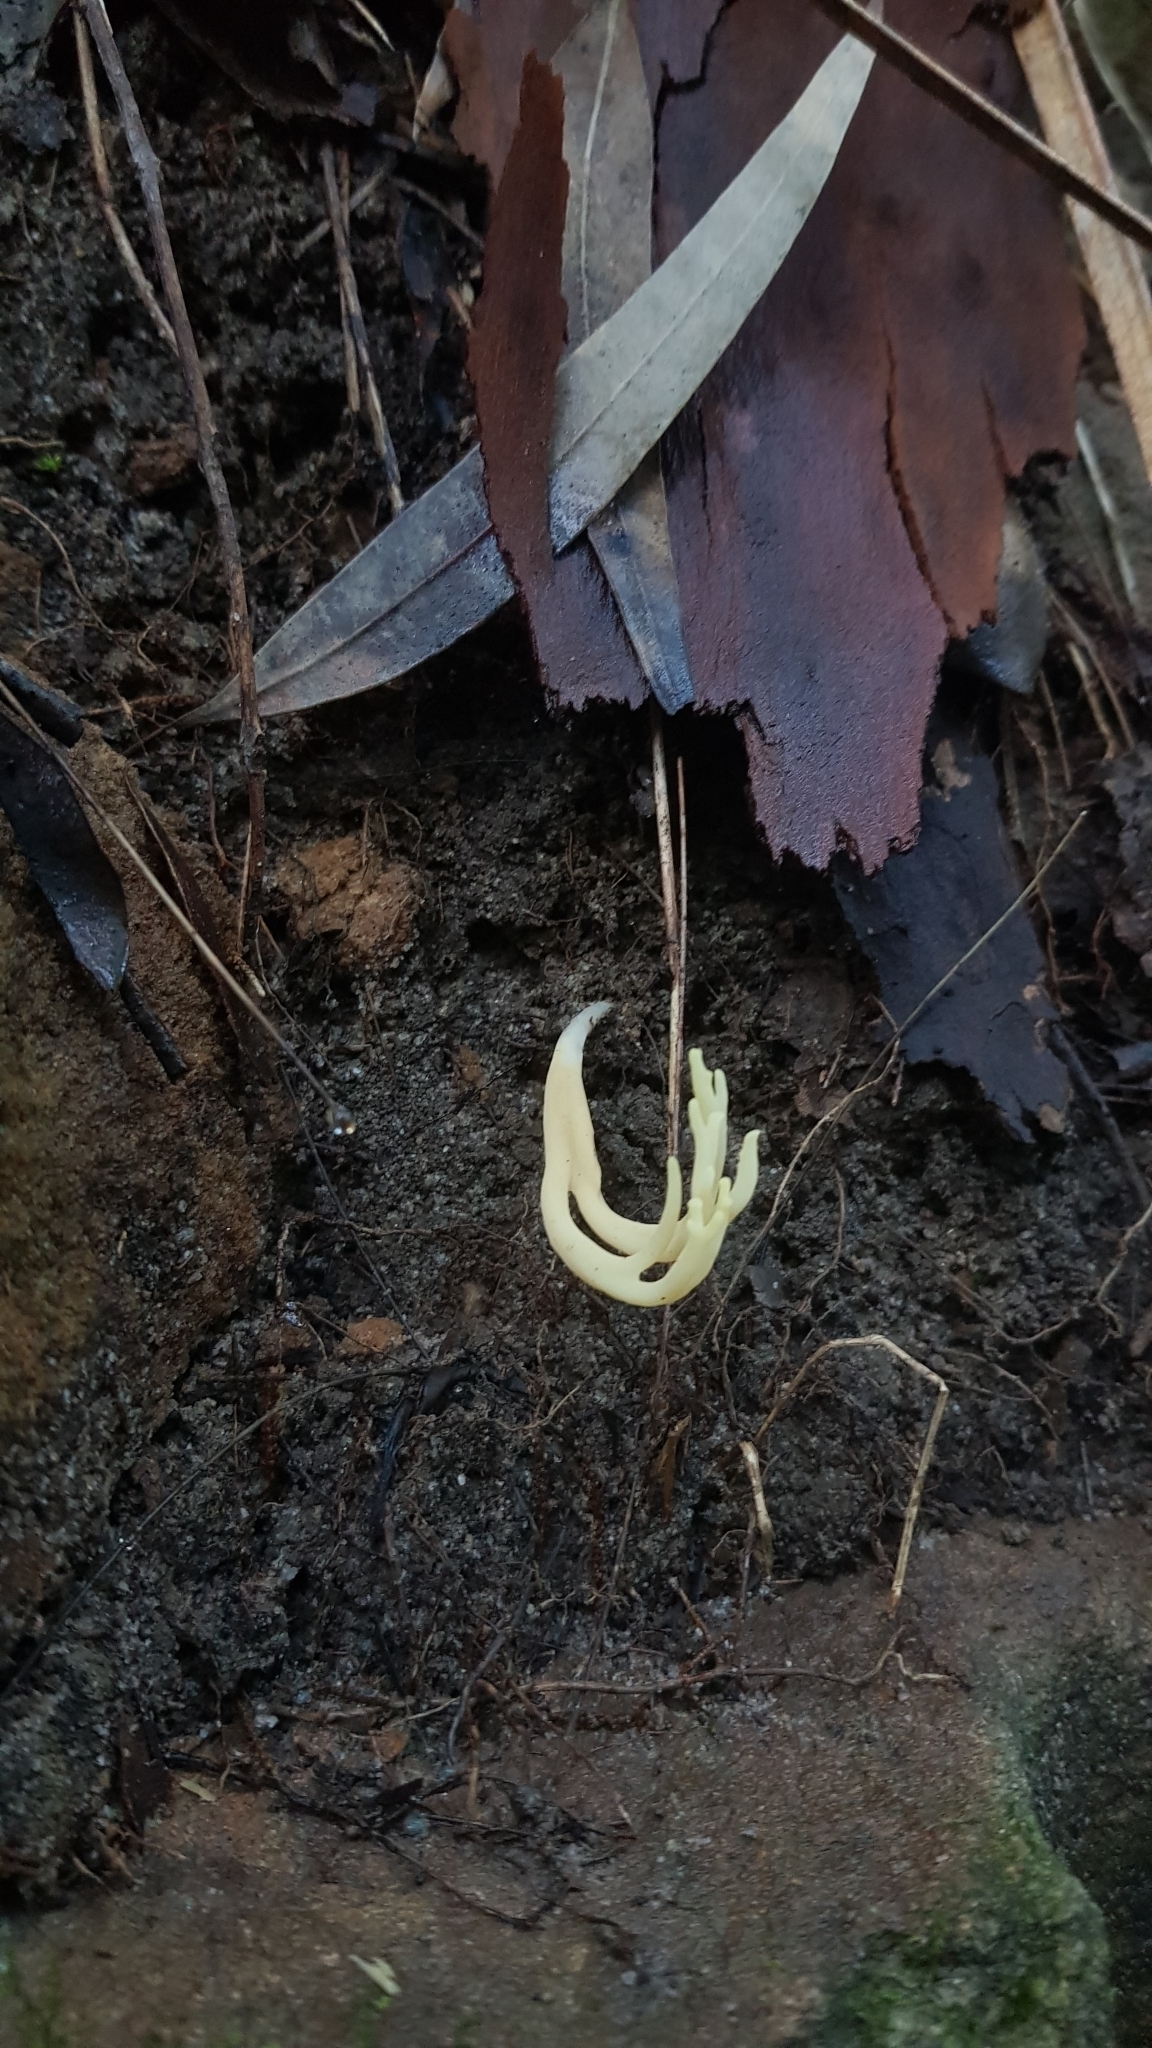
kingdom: Fungi
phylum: Basidiomycota
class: Agaricomycetes
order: Gomphales
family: Gomphaceae
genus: Ramaria
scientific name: Ramaria lorithamnus
